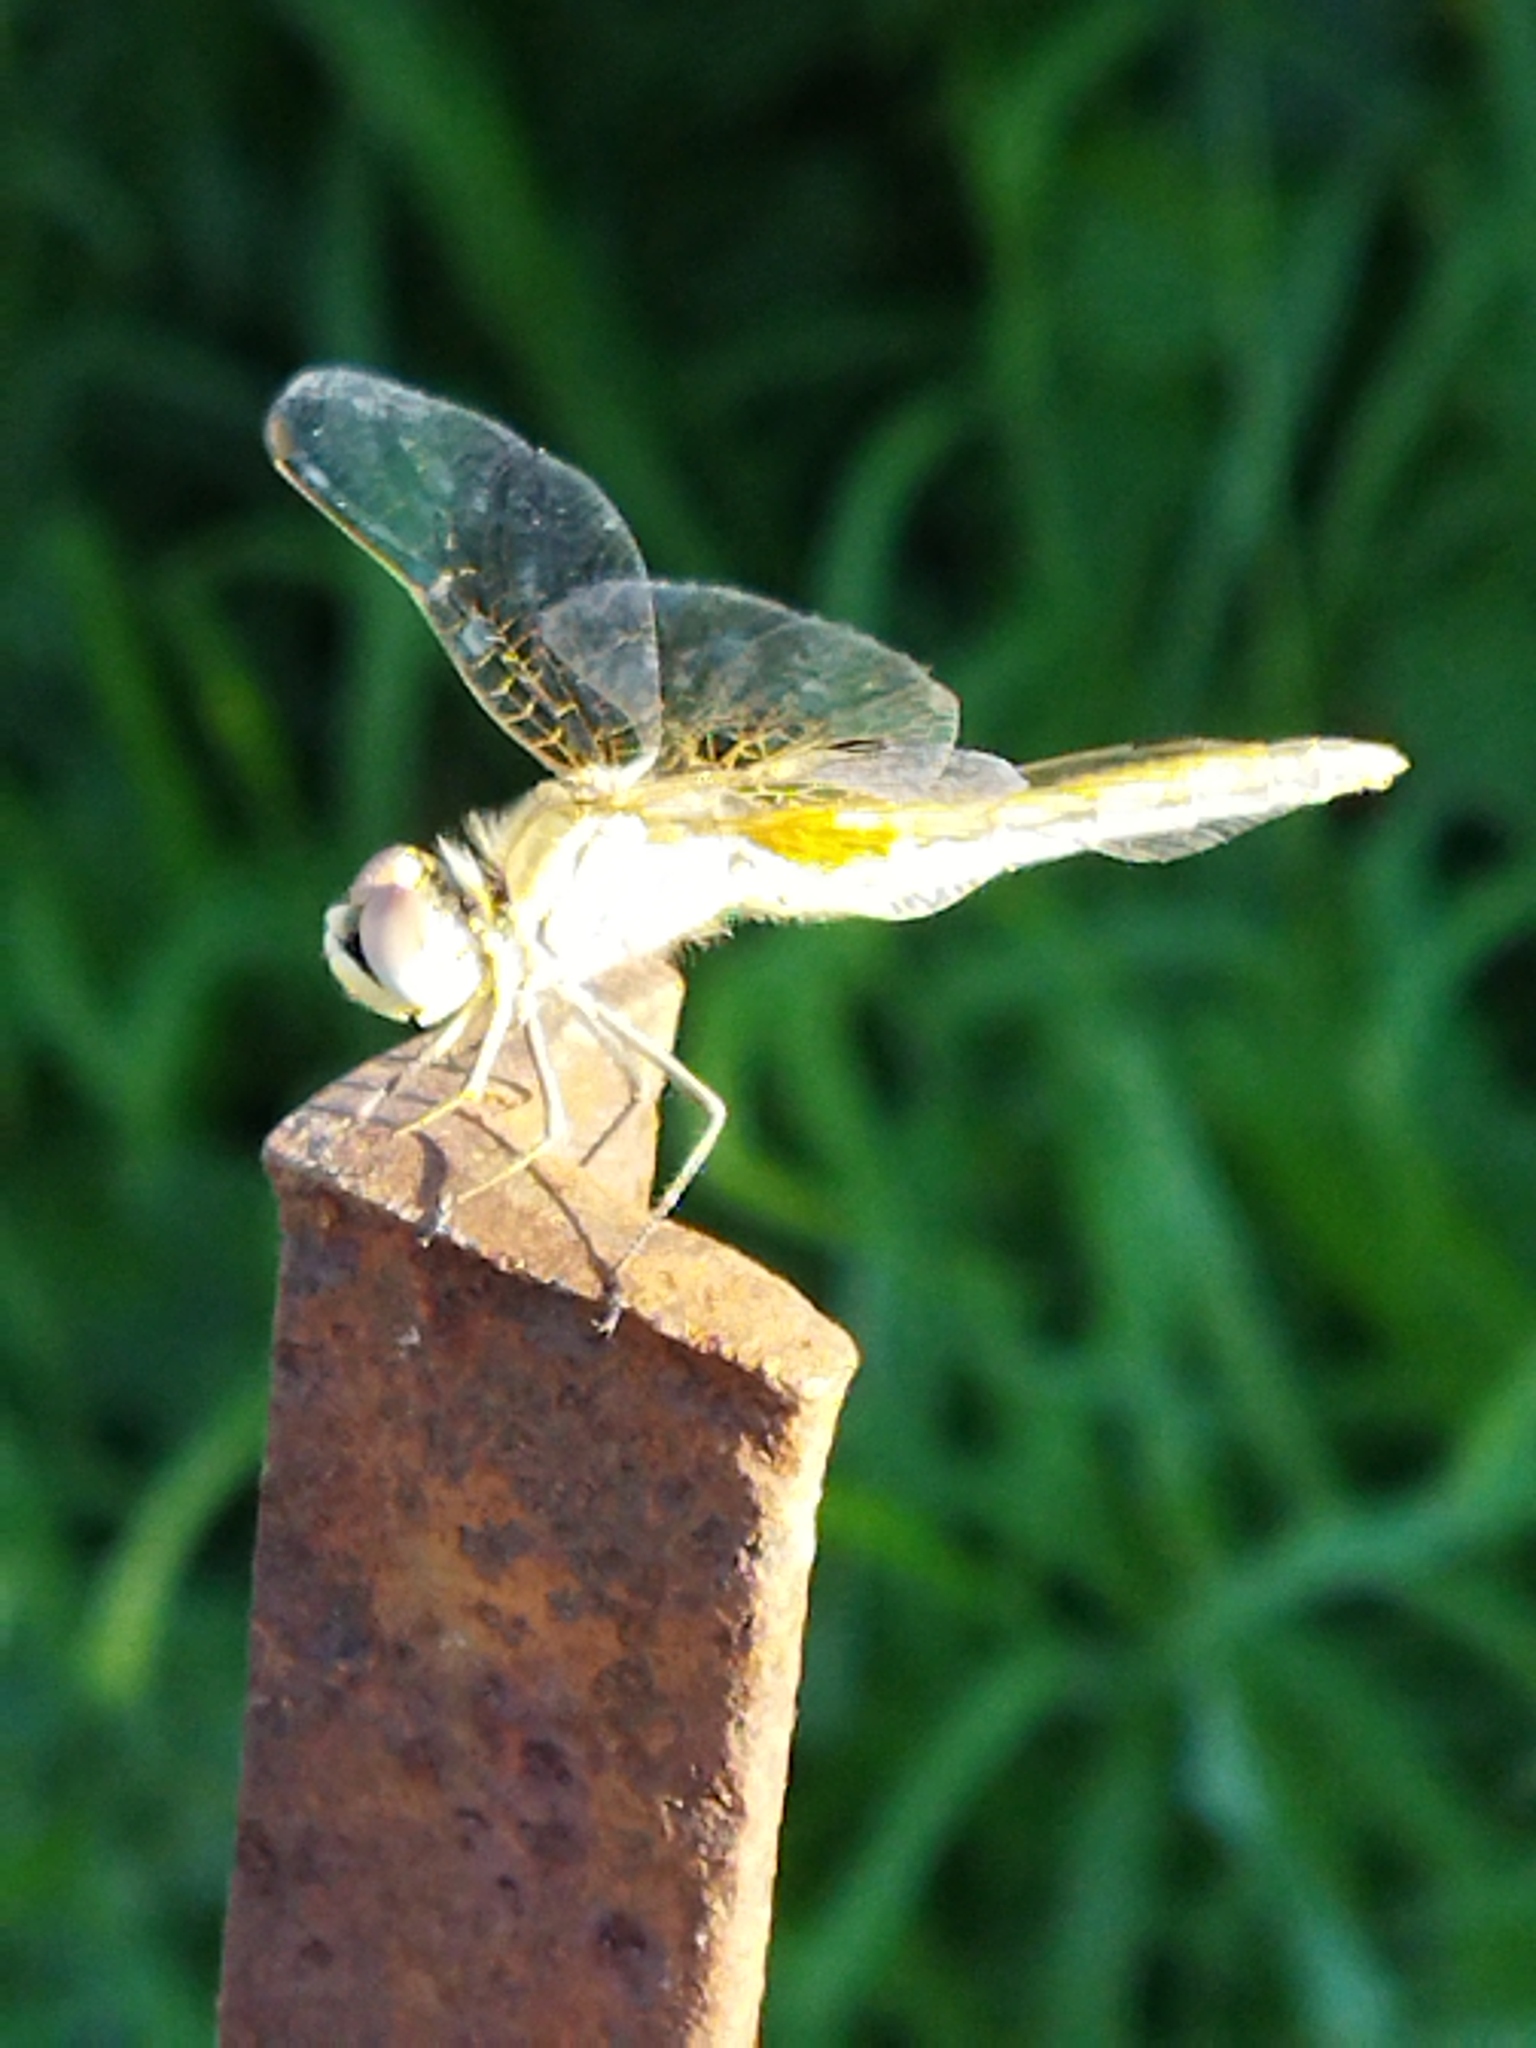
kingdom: Animalia
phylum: Arthropoda
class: Insecta
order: Odonata
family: Libellulidae
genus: Sympetrum
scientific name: Sympetrum fonscolombii
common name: Red-veined darter
